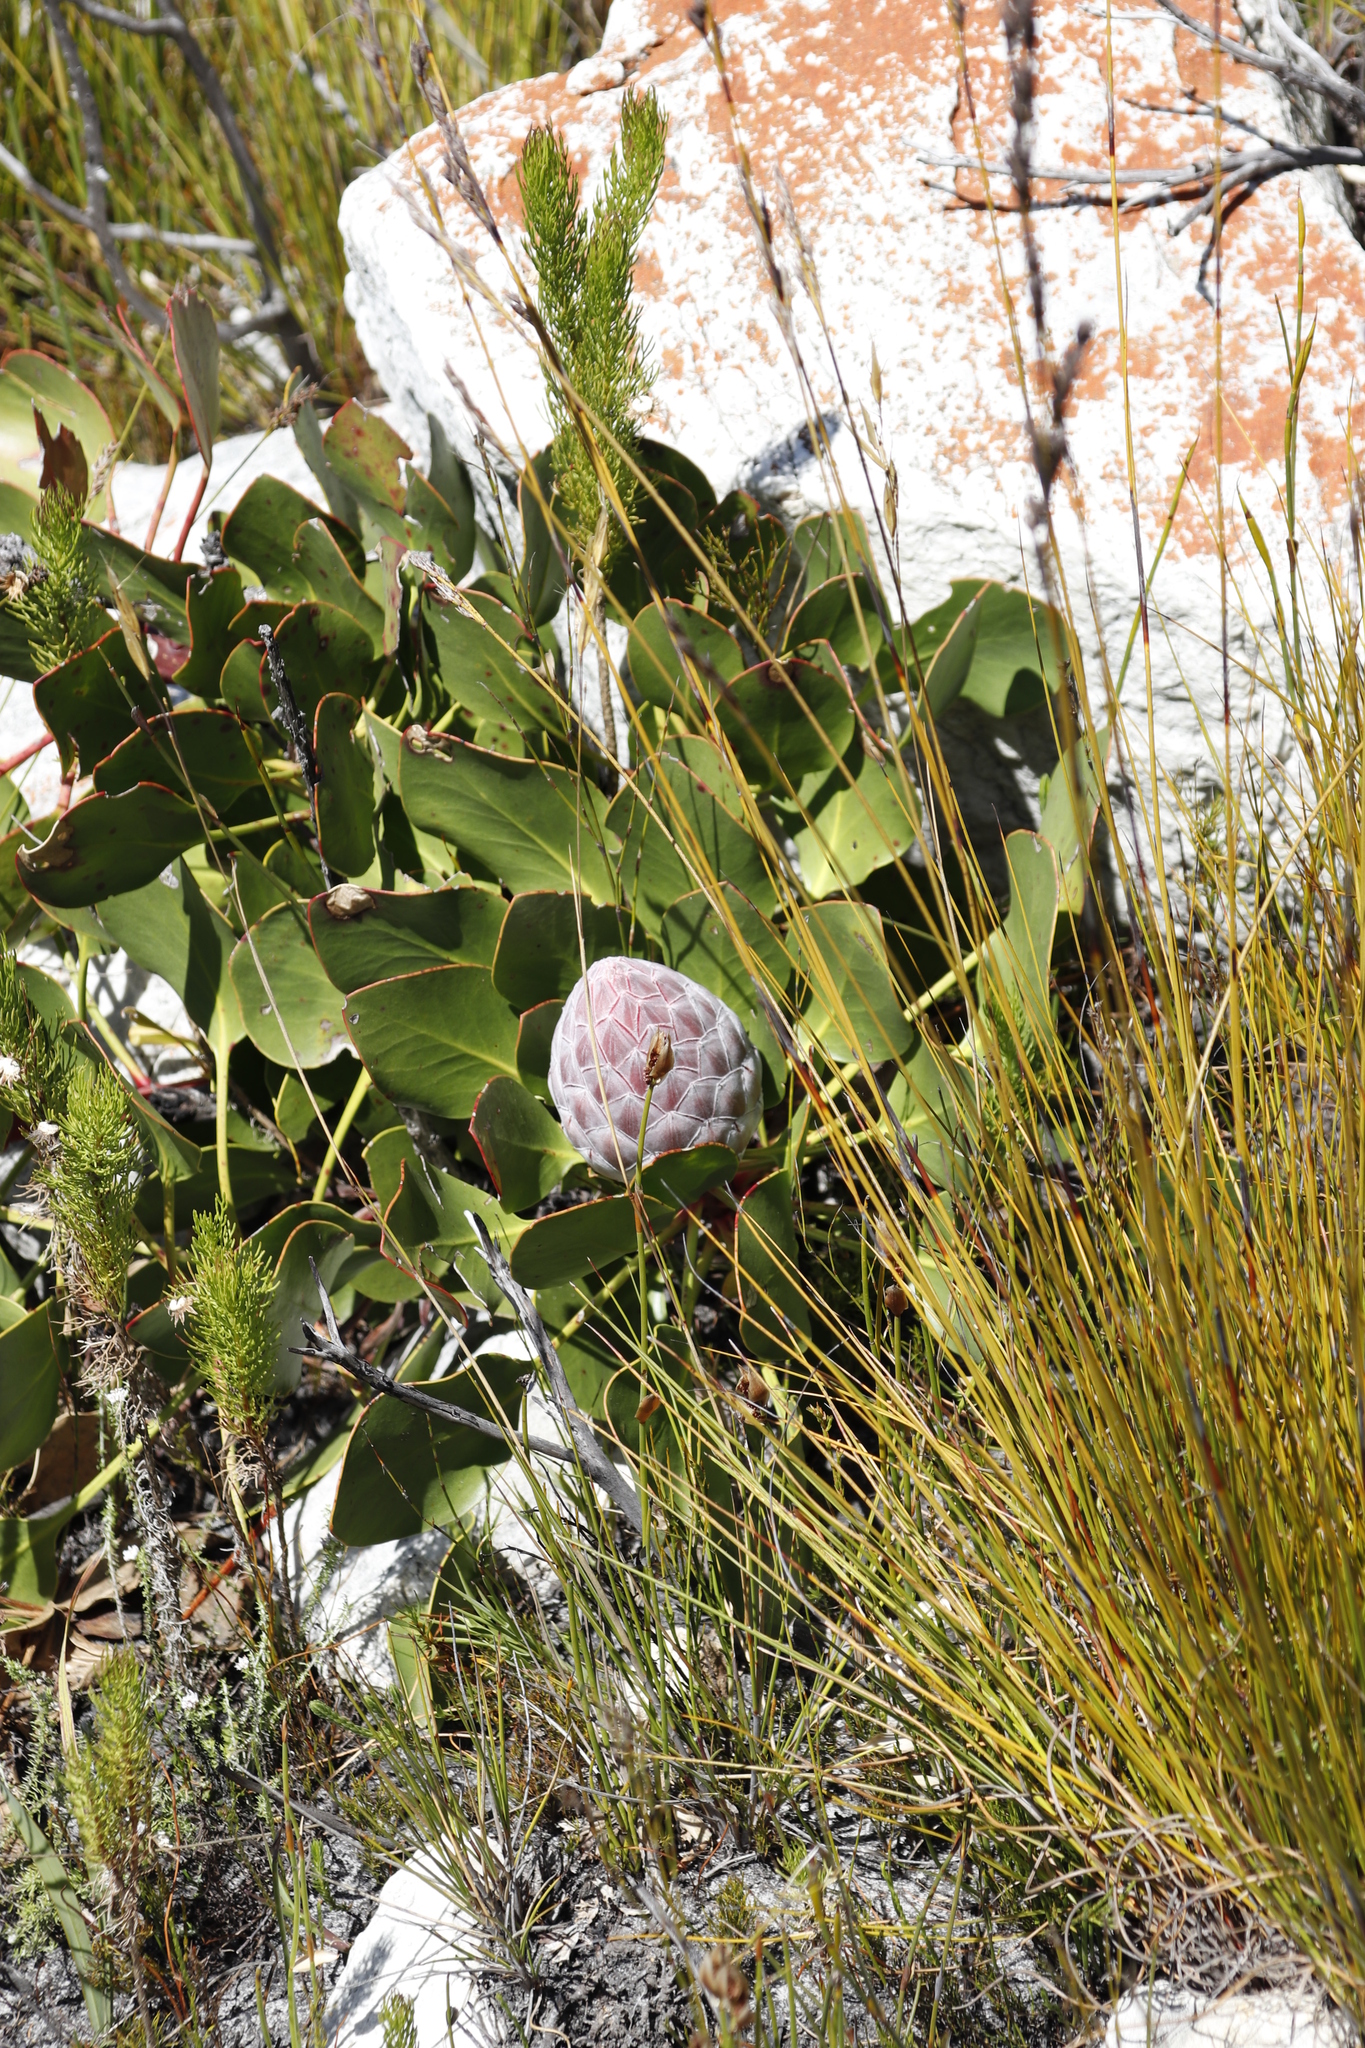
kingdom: Plantae
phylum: Tracheophyta
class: Magnoliopsida
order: Proteales
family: Proteaceae
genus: Protea
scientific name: Protea cynaroides
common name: King protea
